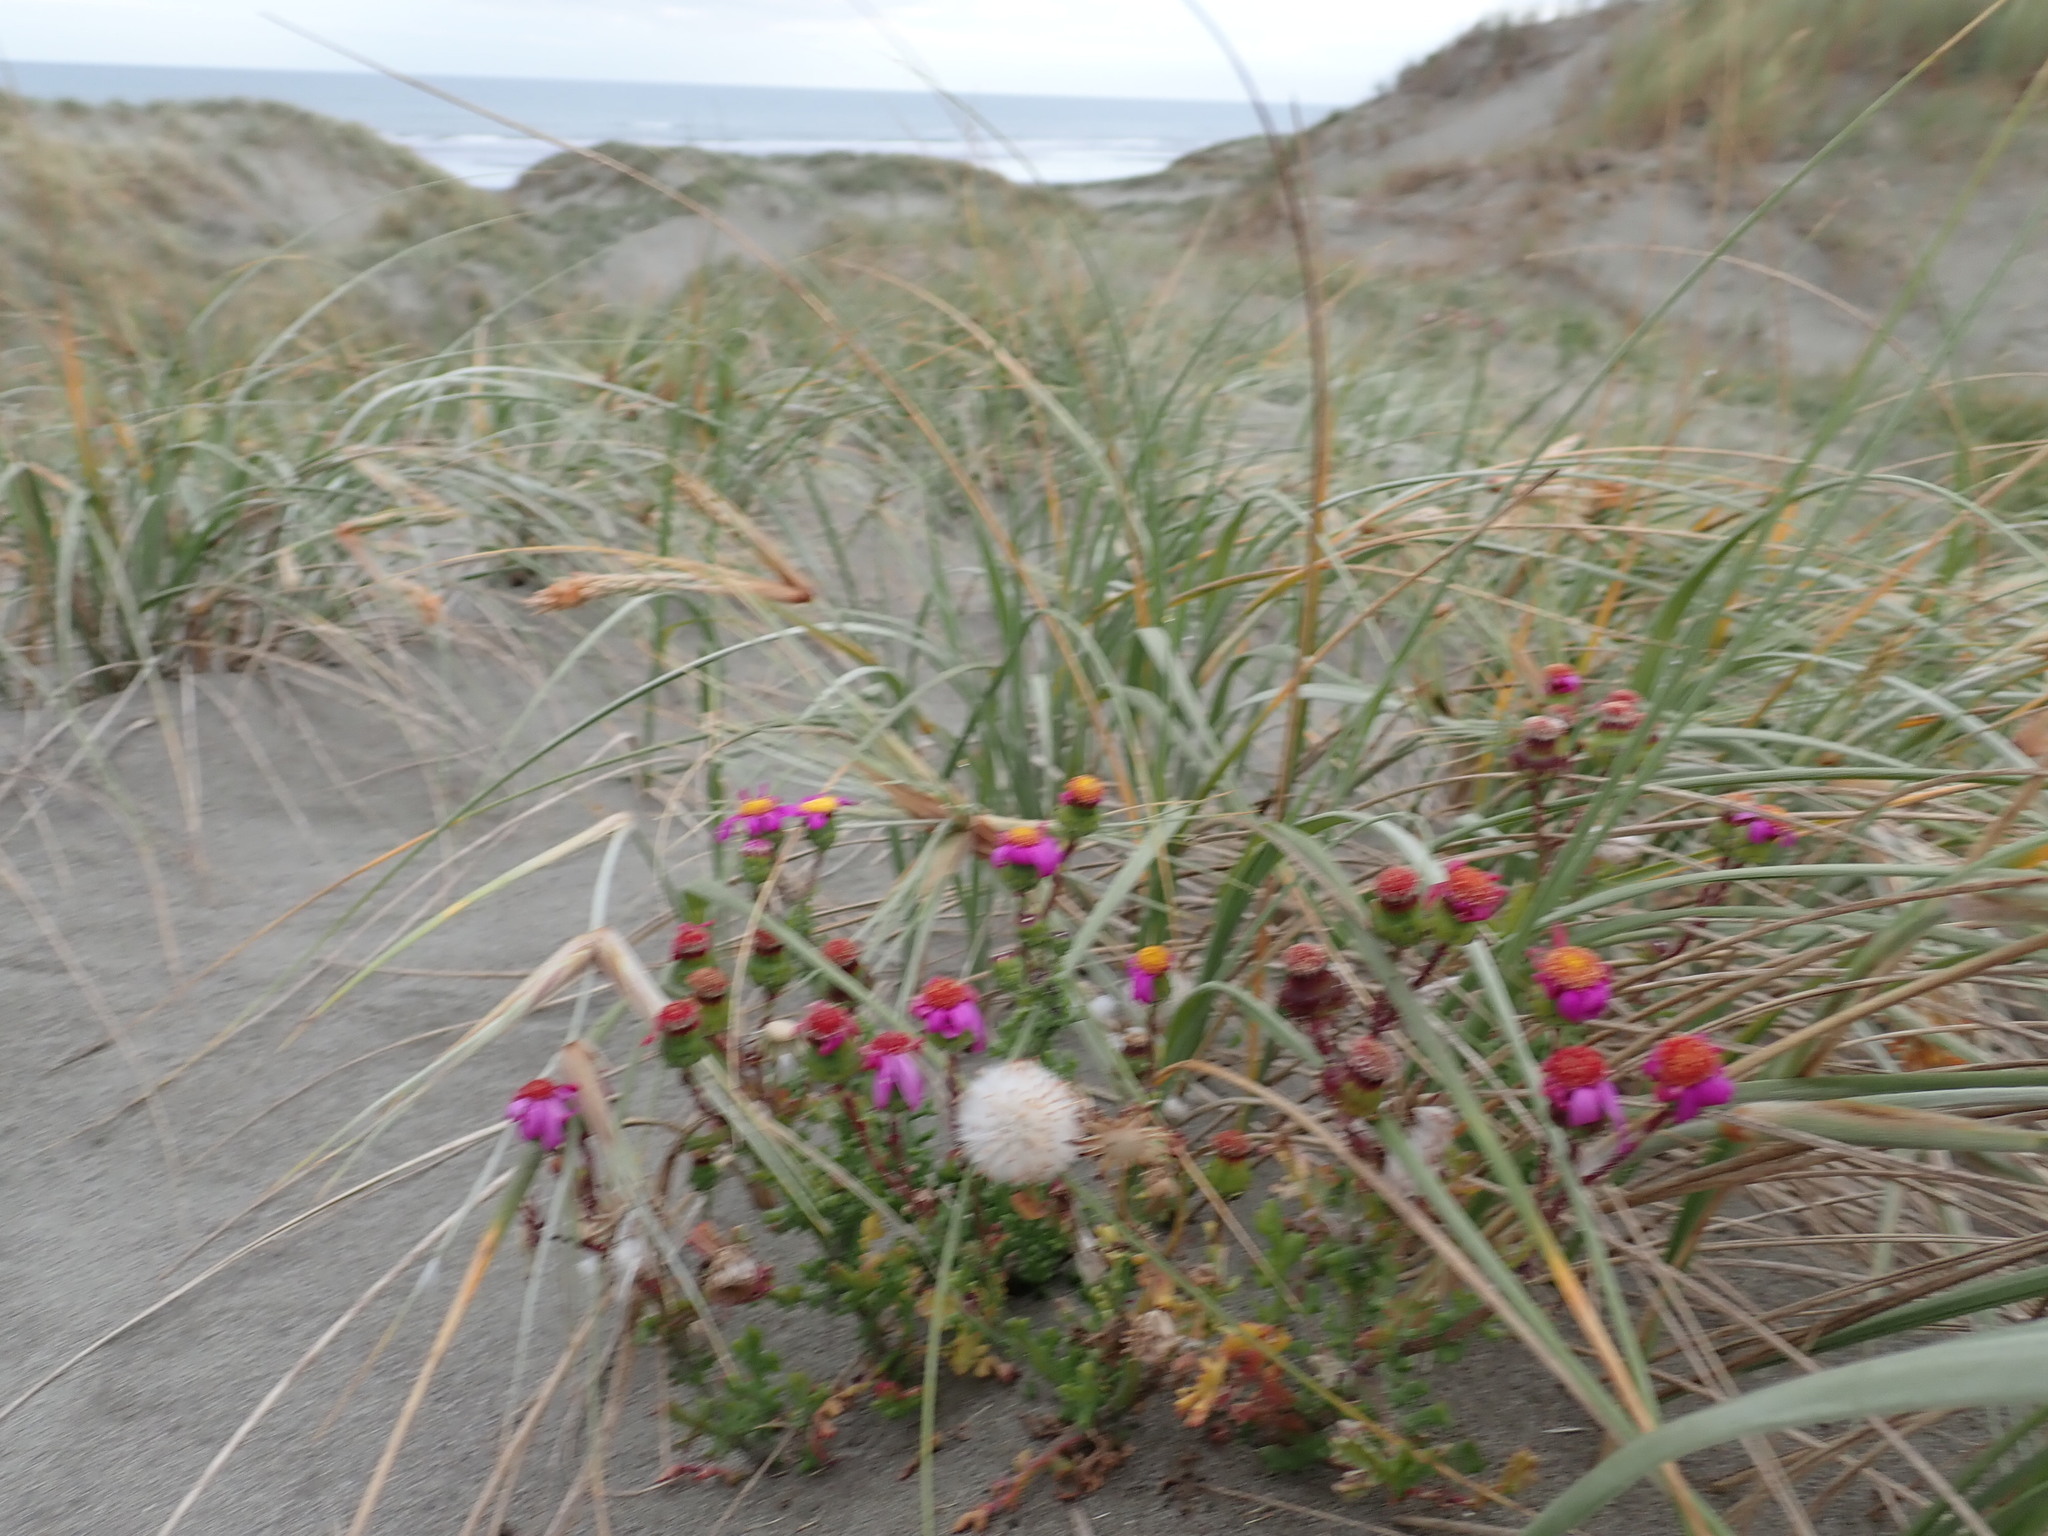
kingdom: Plantae
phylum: Tracheophyta
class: Magnoliopsida
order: Asterales
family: Asteraceae
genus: Senecio
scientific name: Senecio elegans
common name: Purple groundsel
